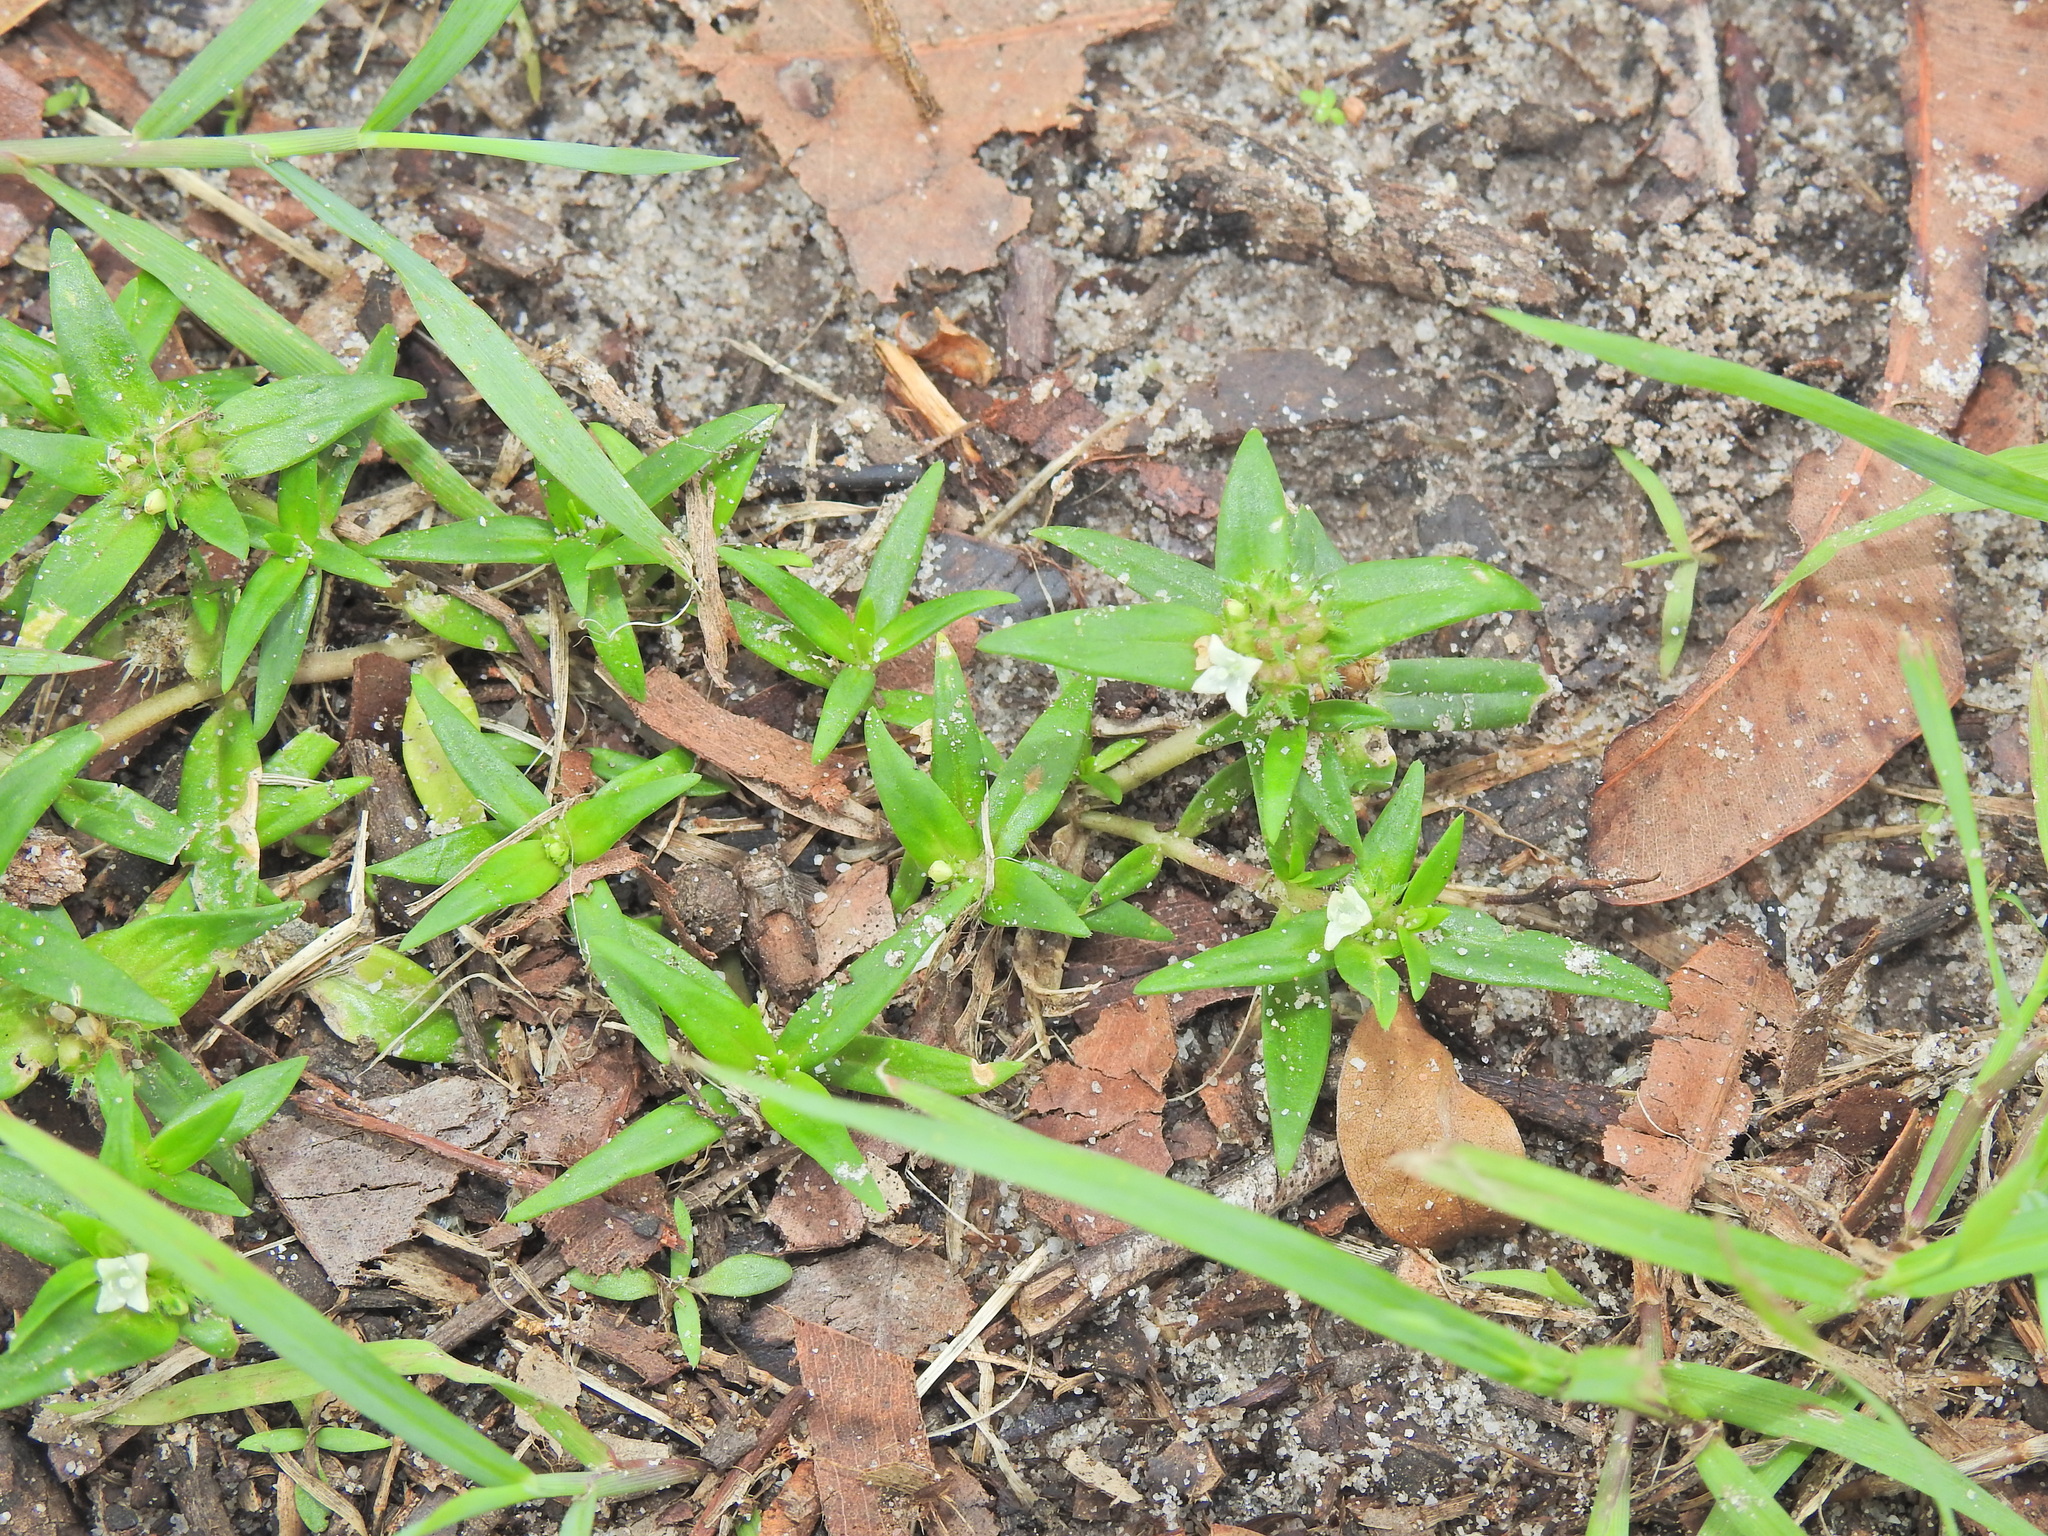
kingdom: Plantae
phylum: Tracheophyta
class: Magnoliopsida
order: Gentianales
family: Rubiaceae
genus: Richardia
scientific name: Richardia stellaris
